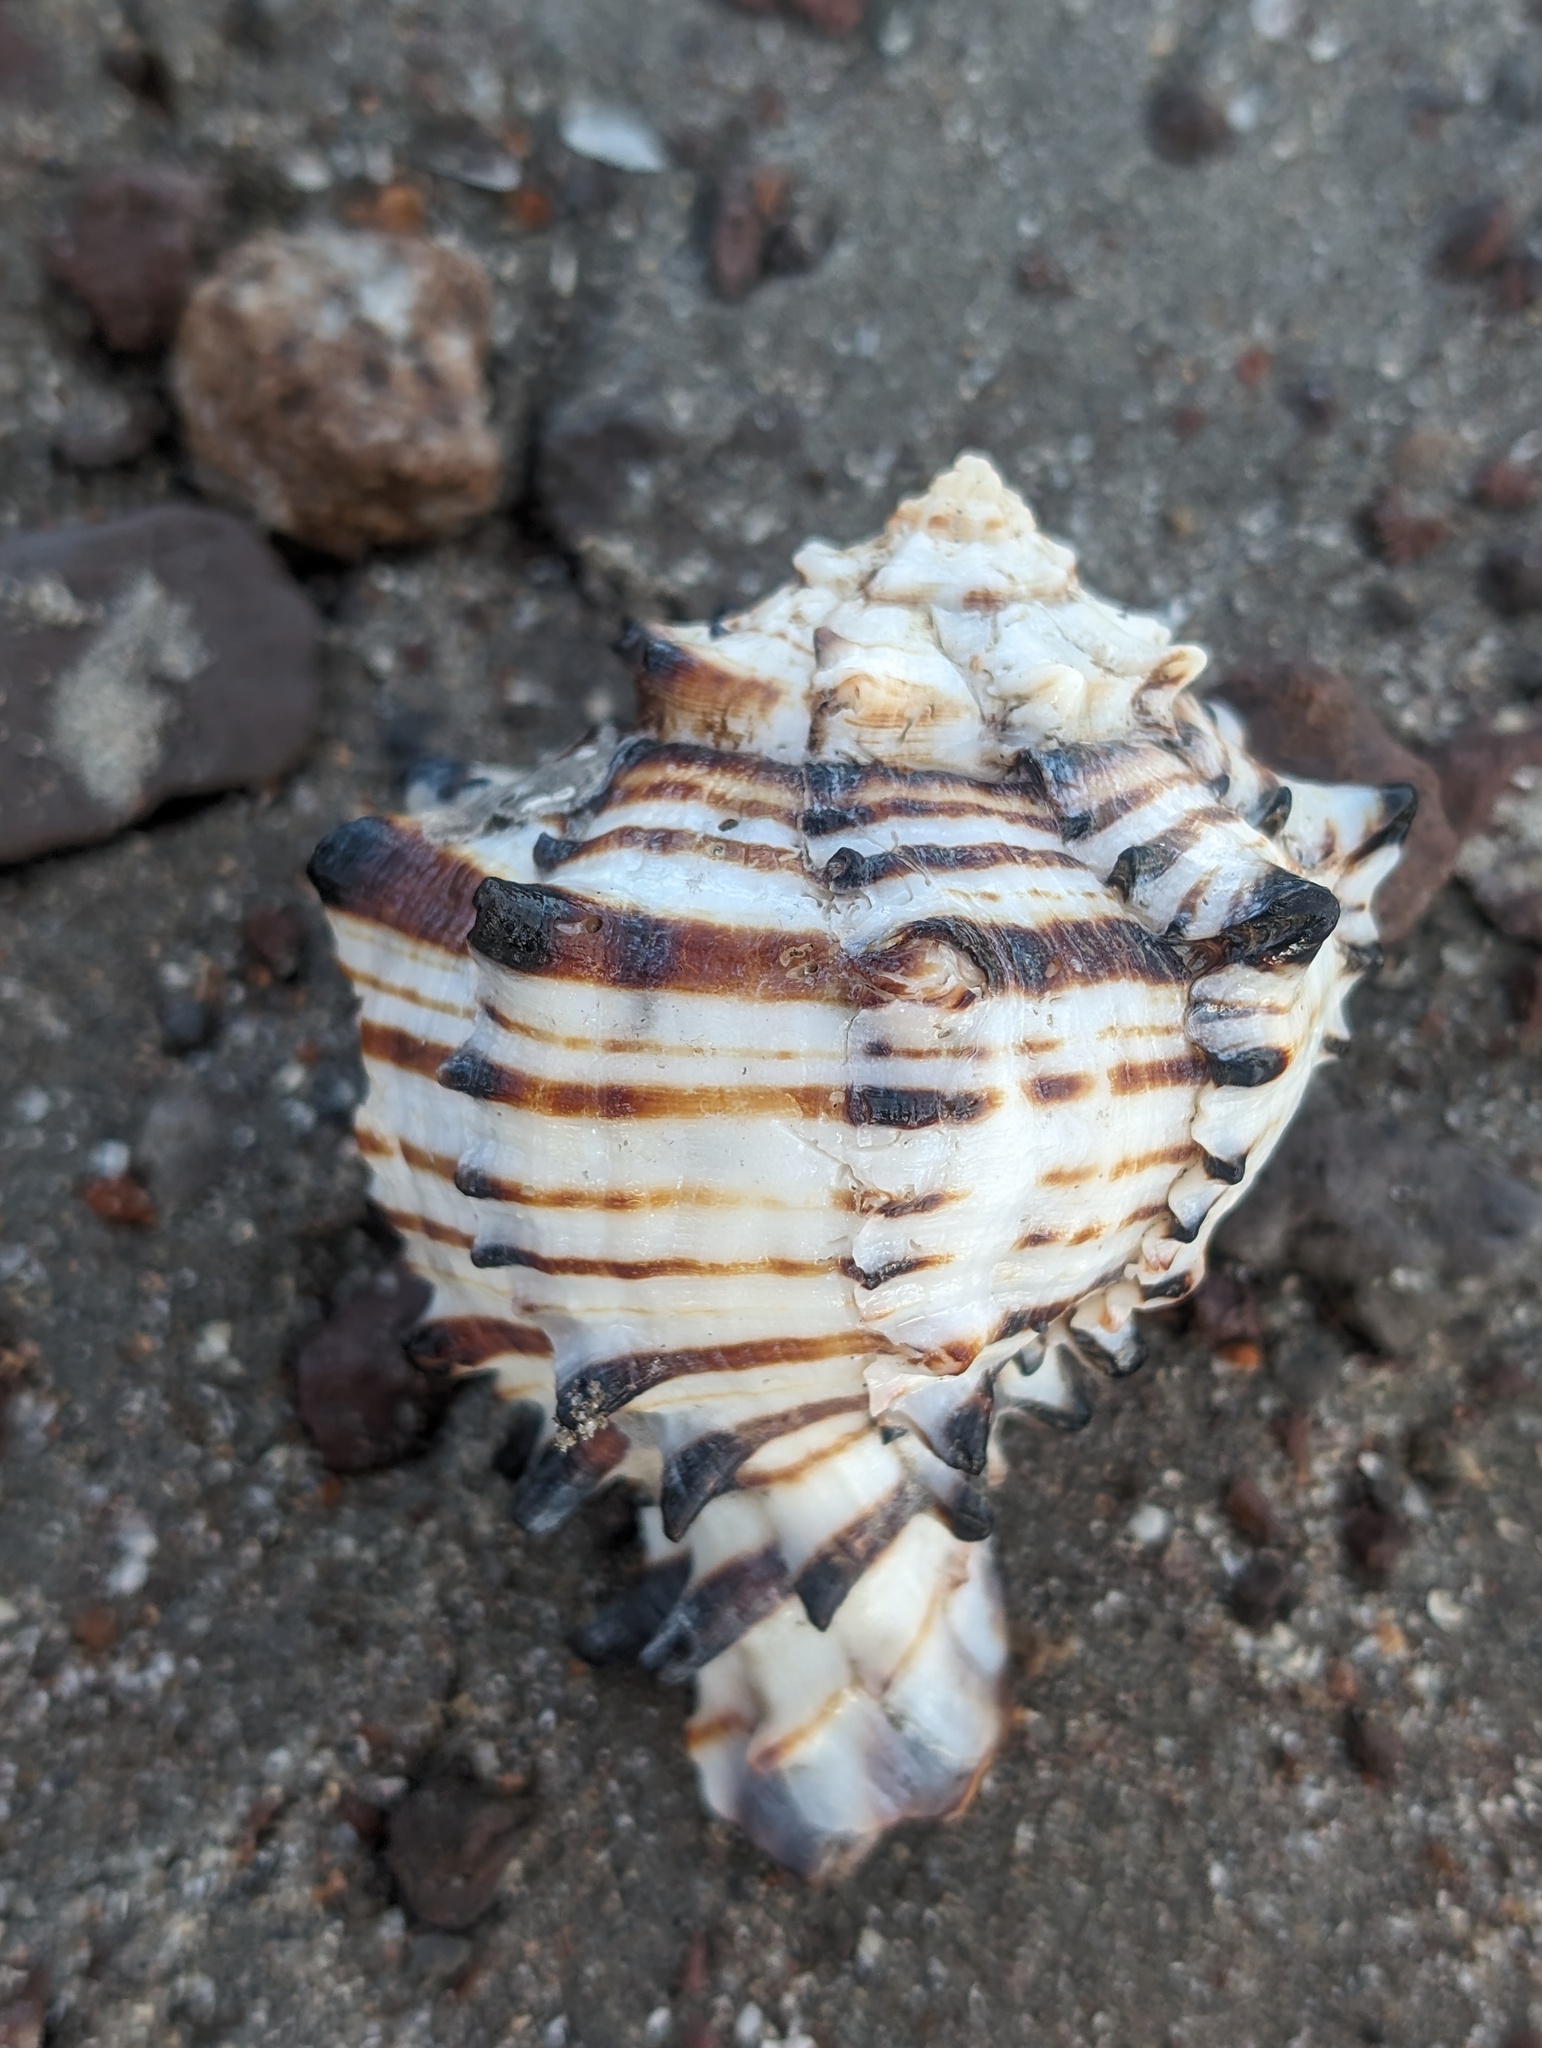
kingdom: Animalia
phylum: Mollusca
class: Gastropoda
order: Neogastropoda
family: Muricidae
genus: Muricanthus
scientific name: Muricanthus nigritus
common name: Black murex
